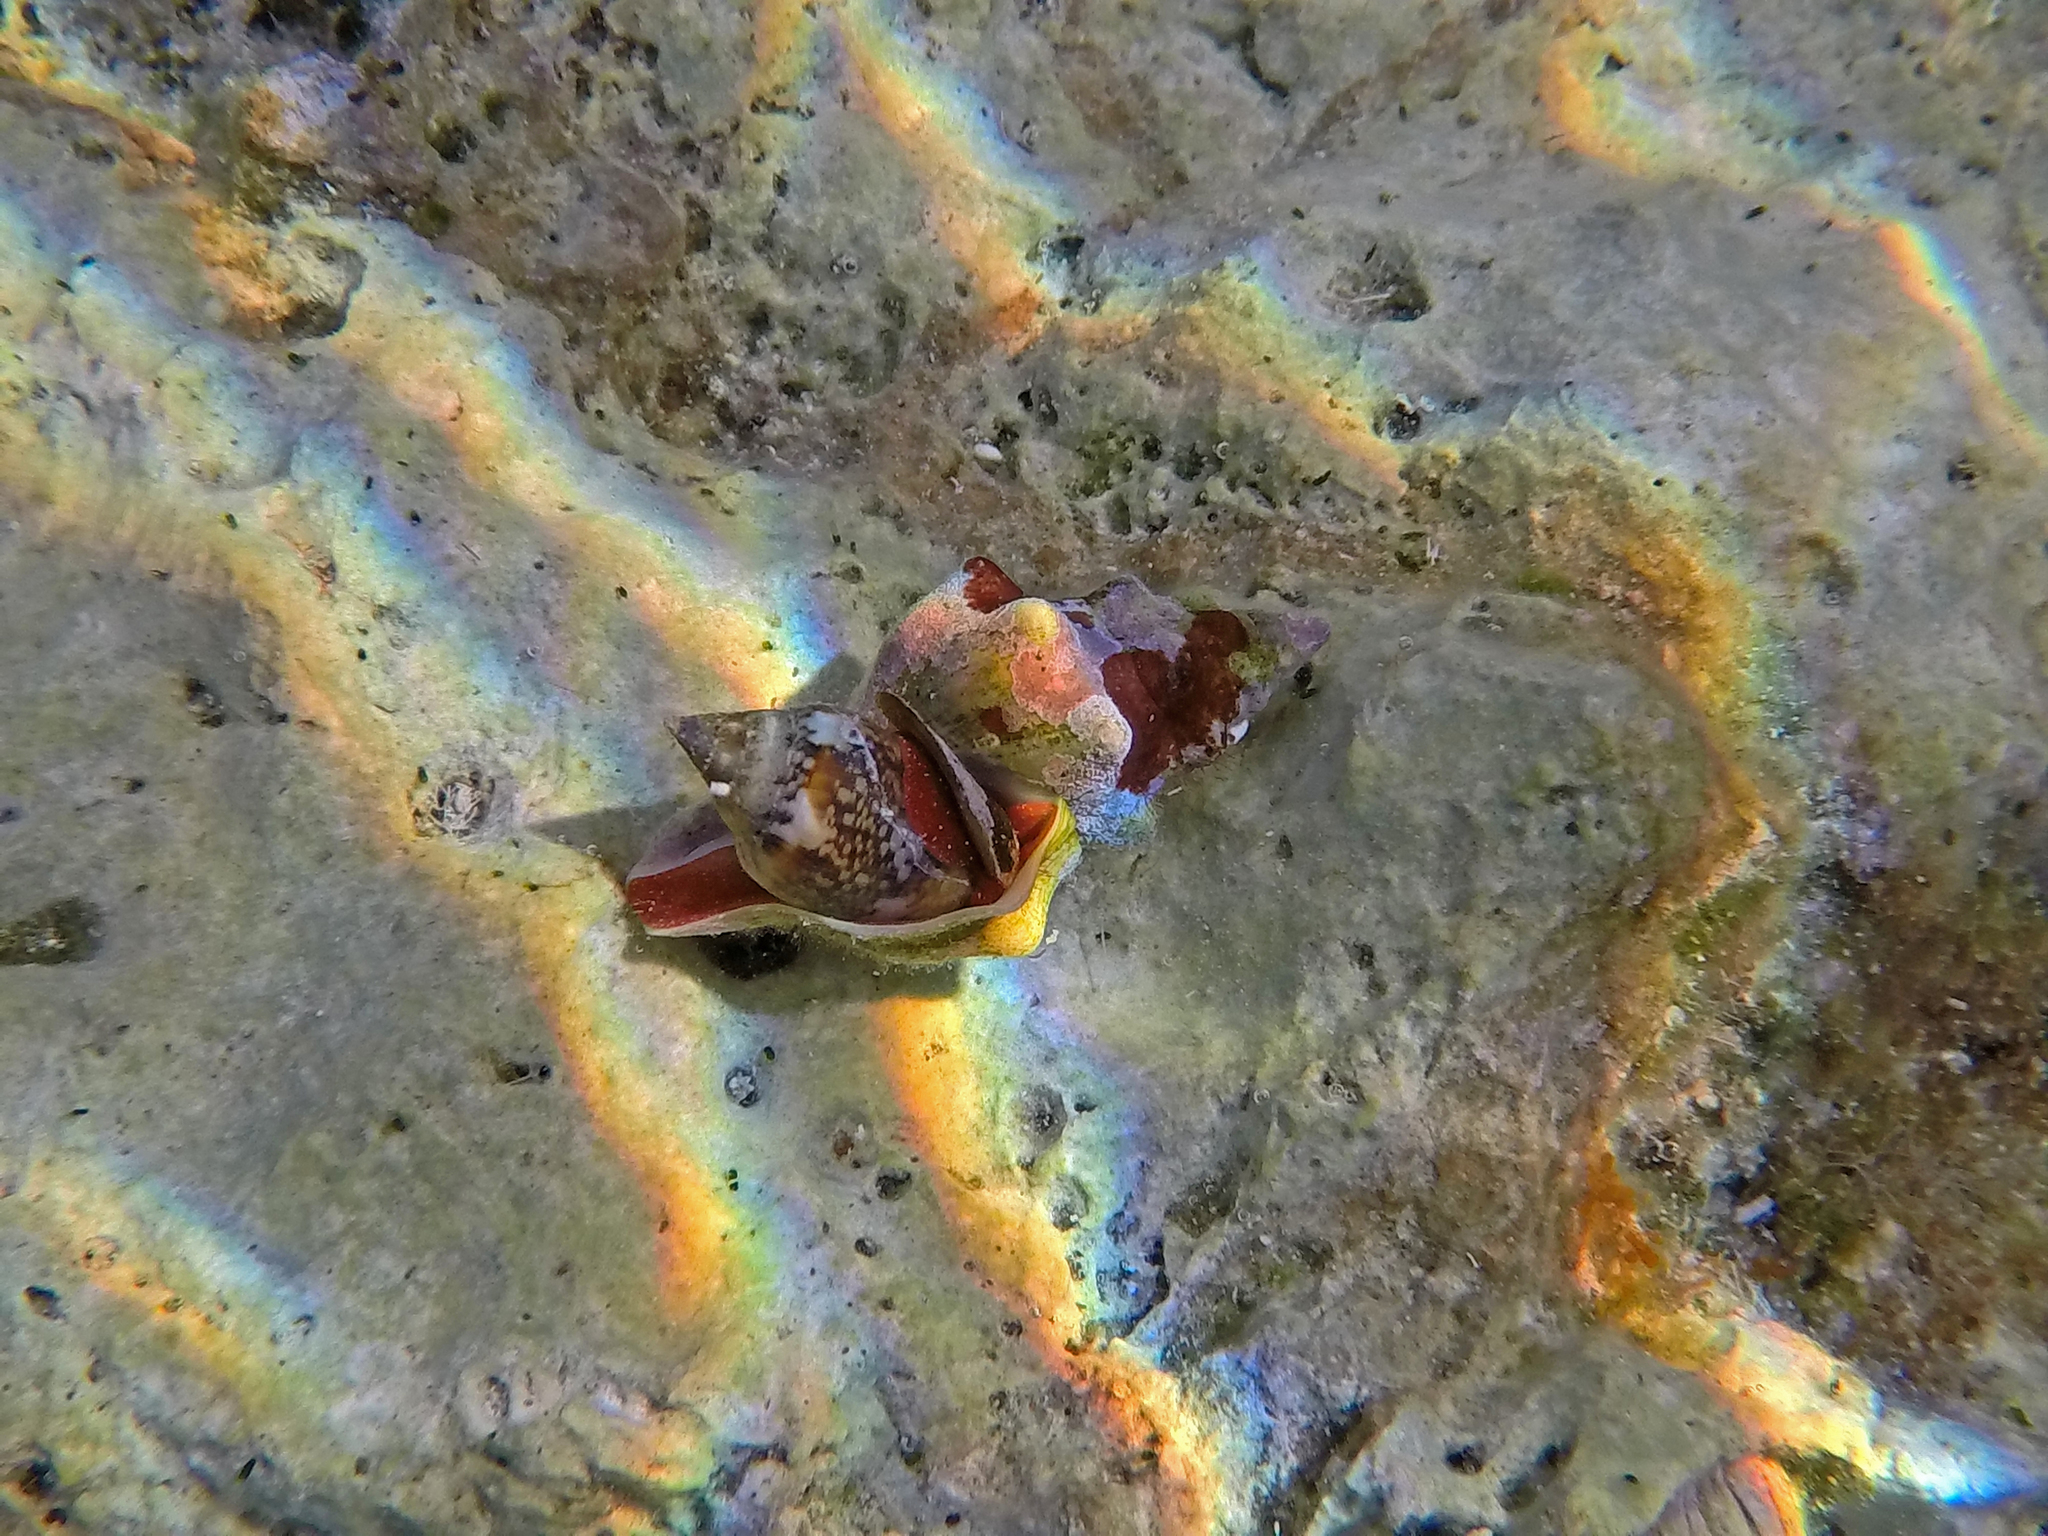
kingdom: Animalia
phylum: Mollusca
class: Gastropoda
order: Neogastropoda
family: Fasciolariidae
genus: Tarantinaea
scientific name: Tarantinaea lignaria
